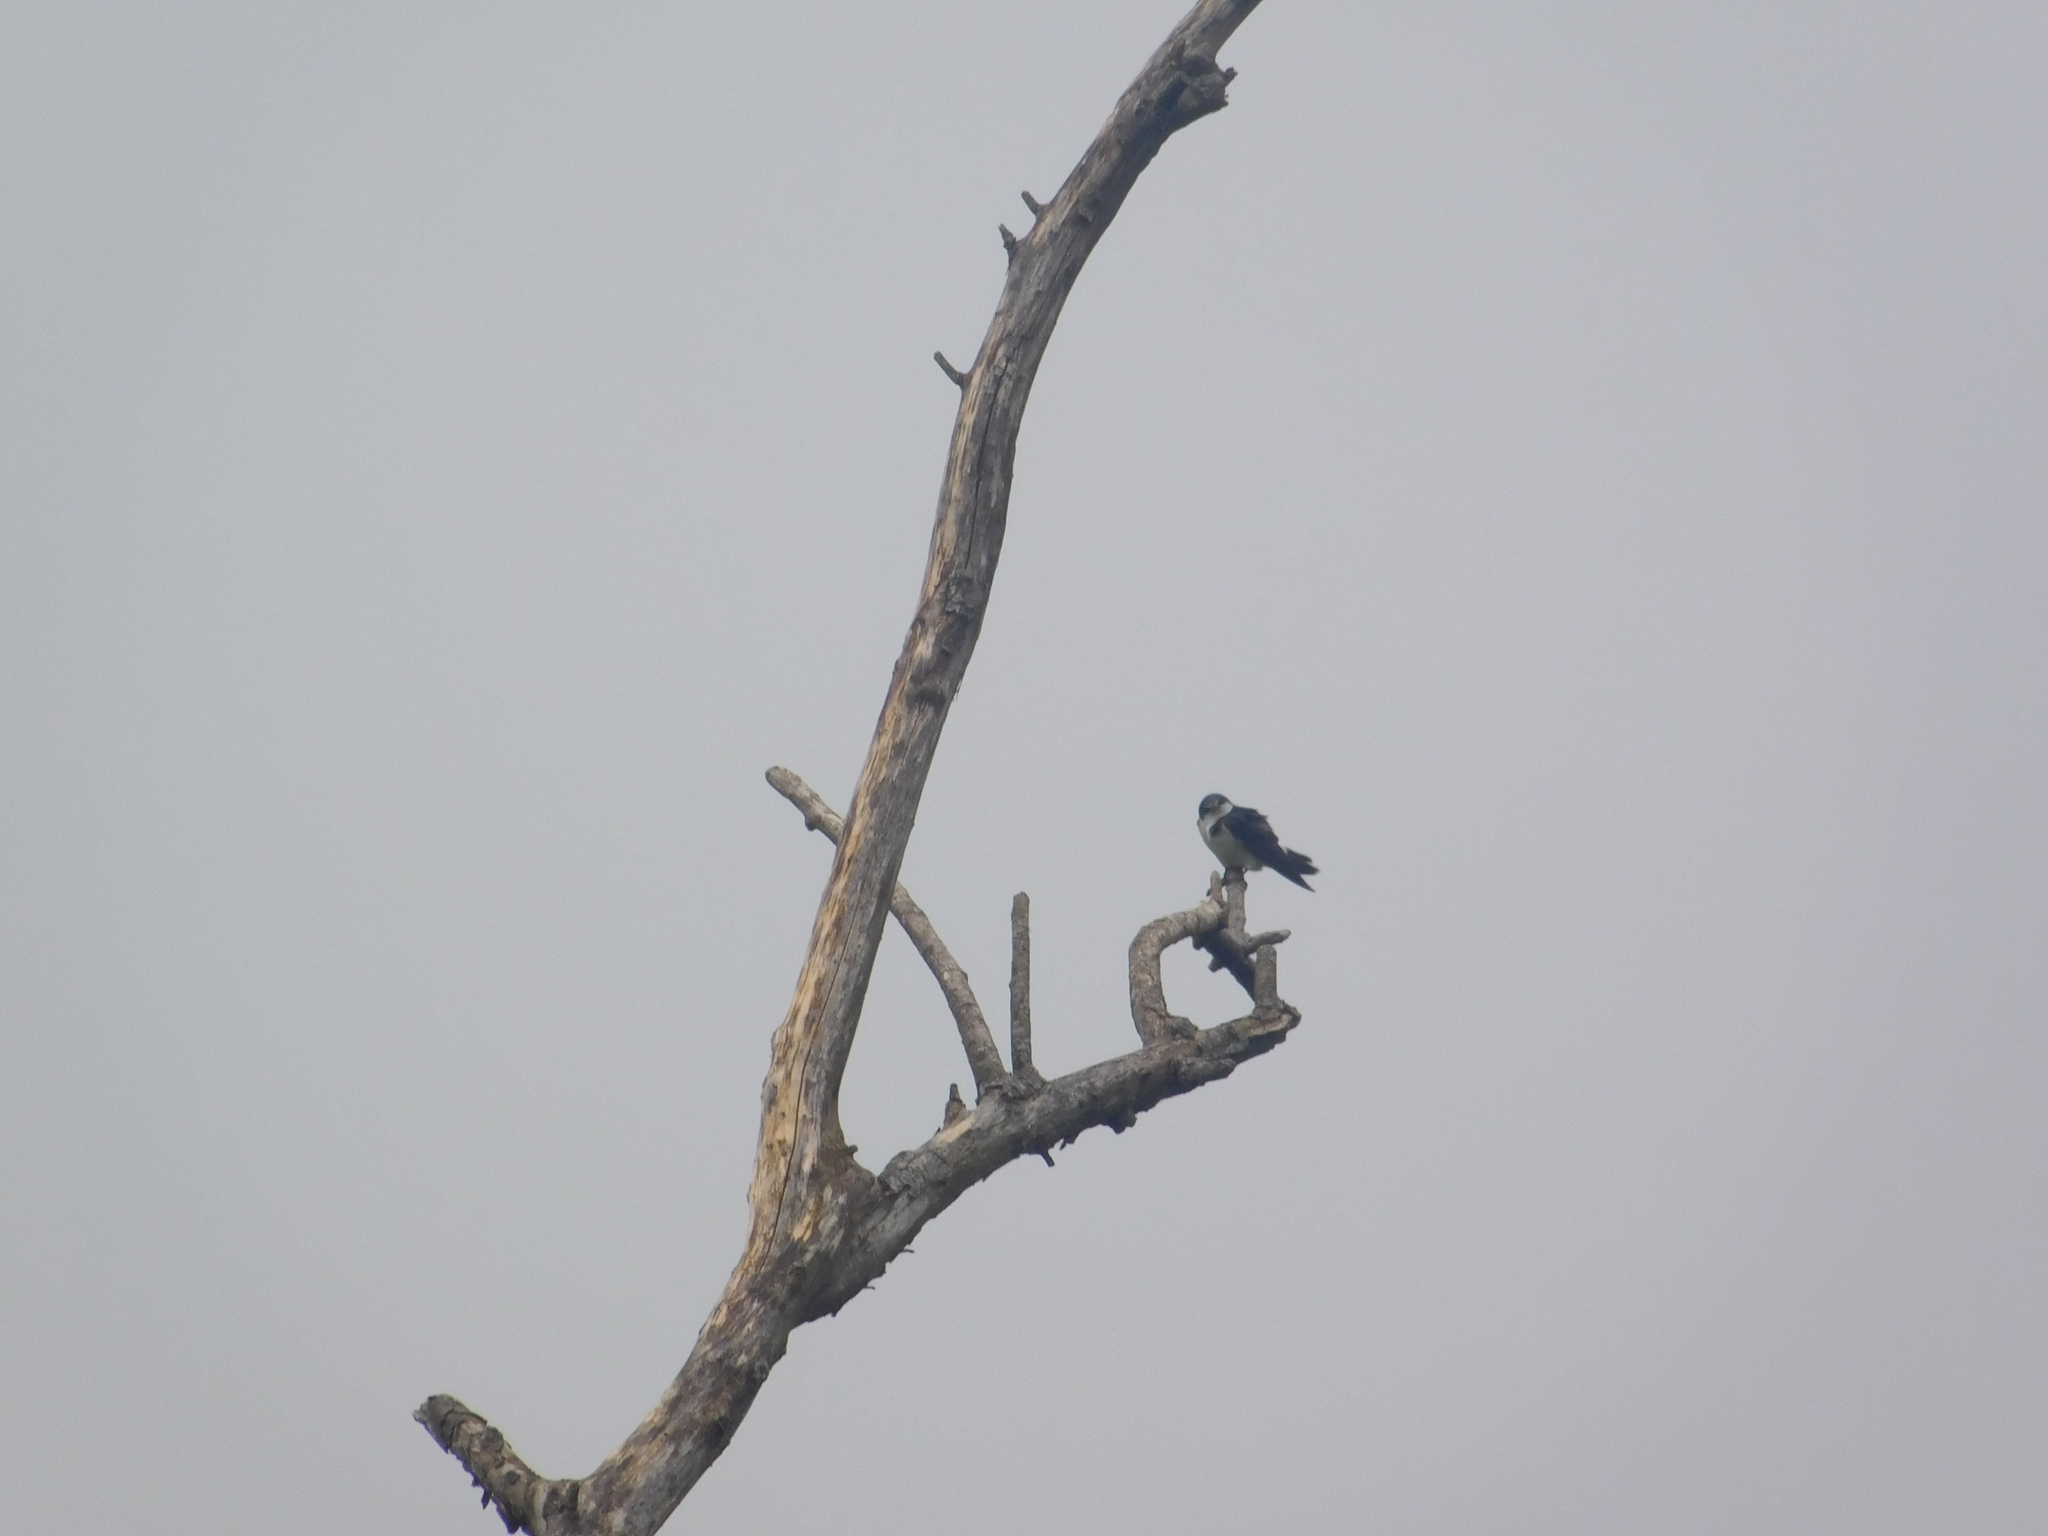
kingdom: Animalia
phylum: Chordata
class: Aves
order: Passeriformes
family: Hirundinidae
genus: Tachycineta
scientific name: Tachycineta leucorrhoa
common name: White-rumped swallow
